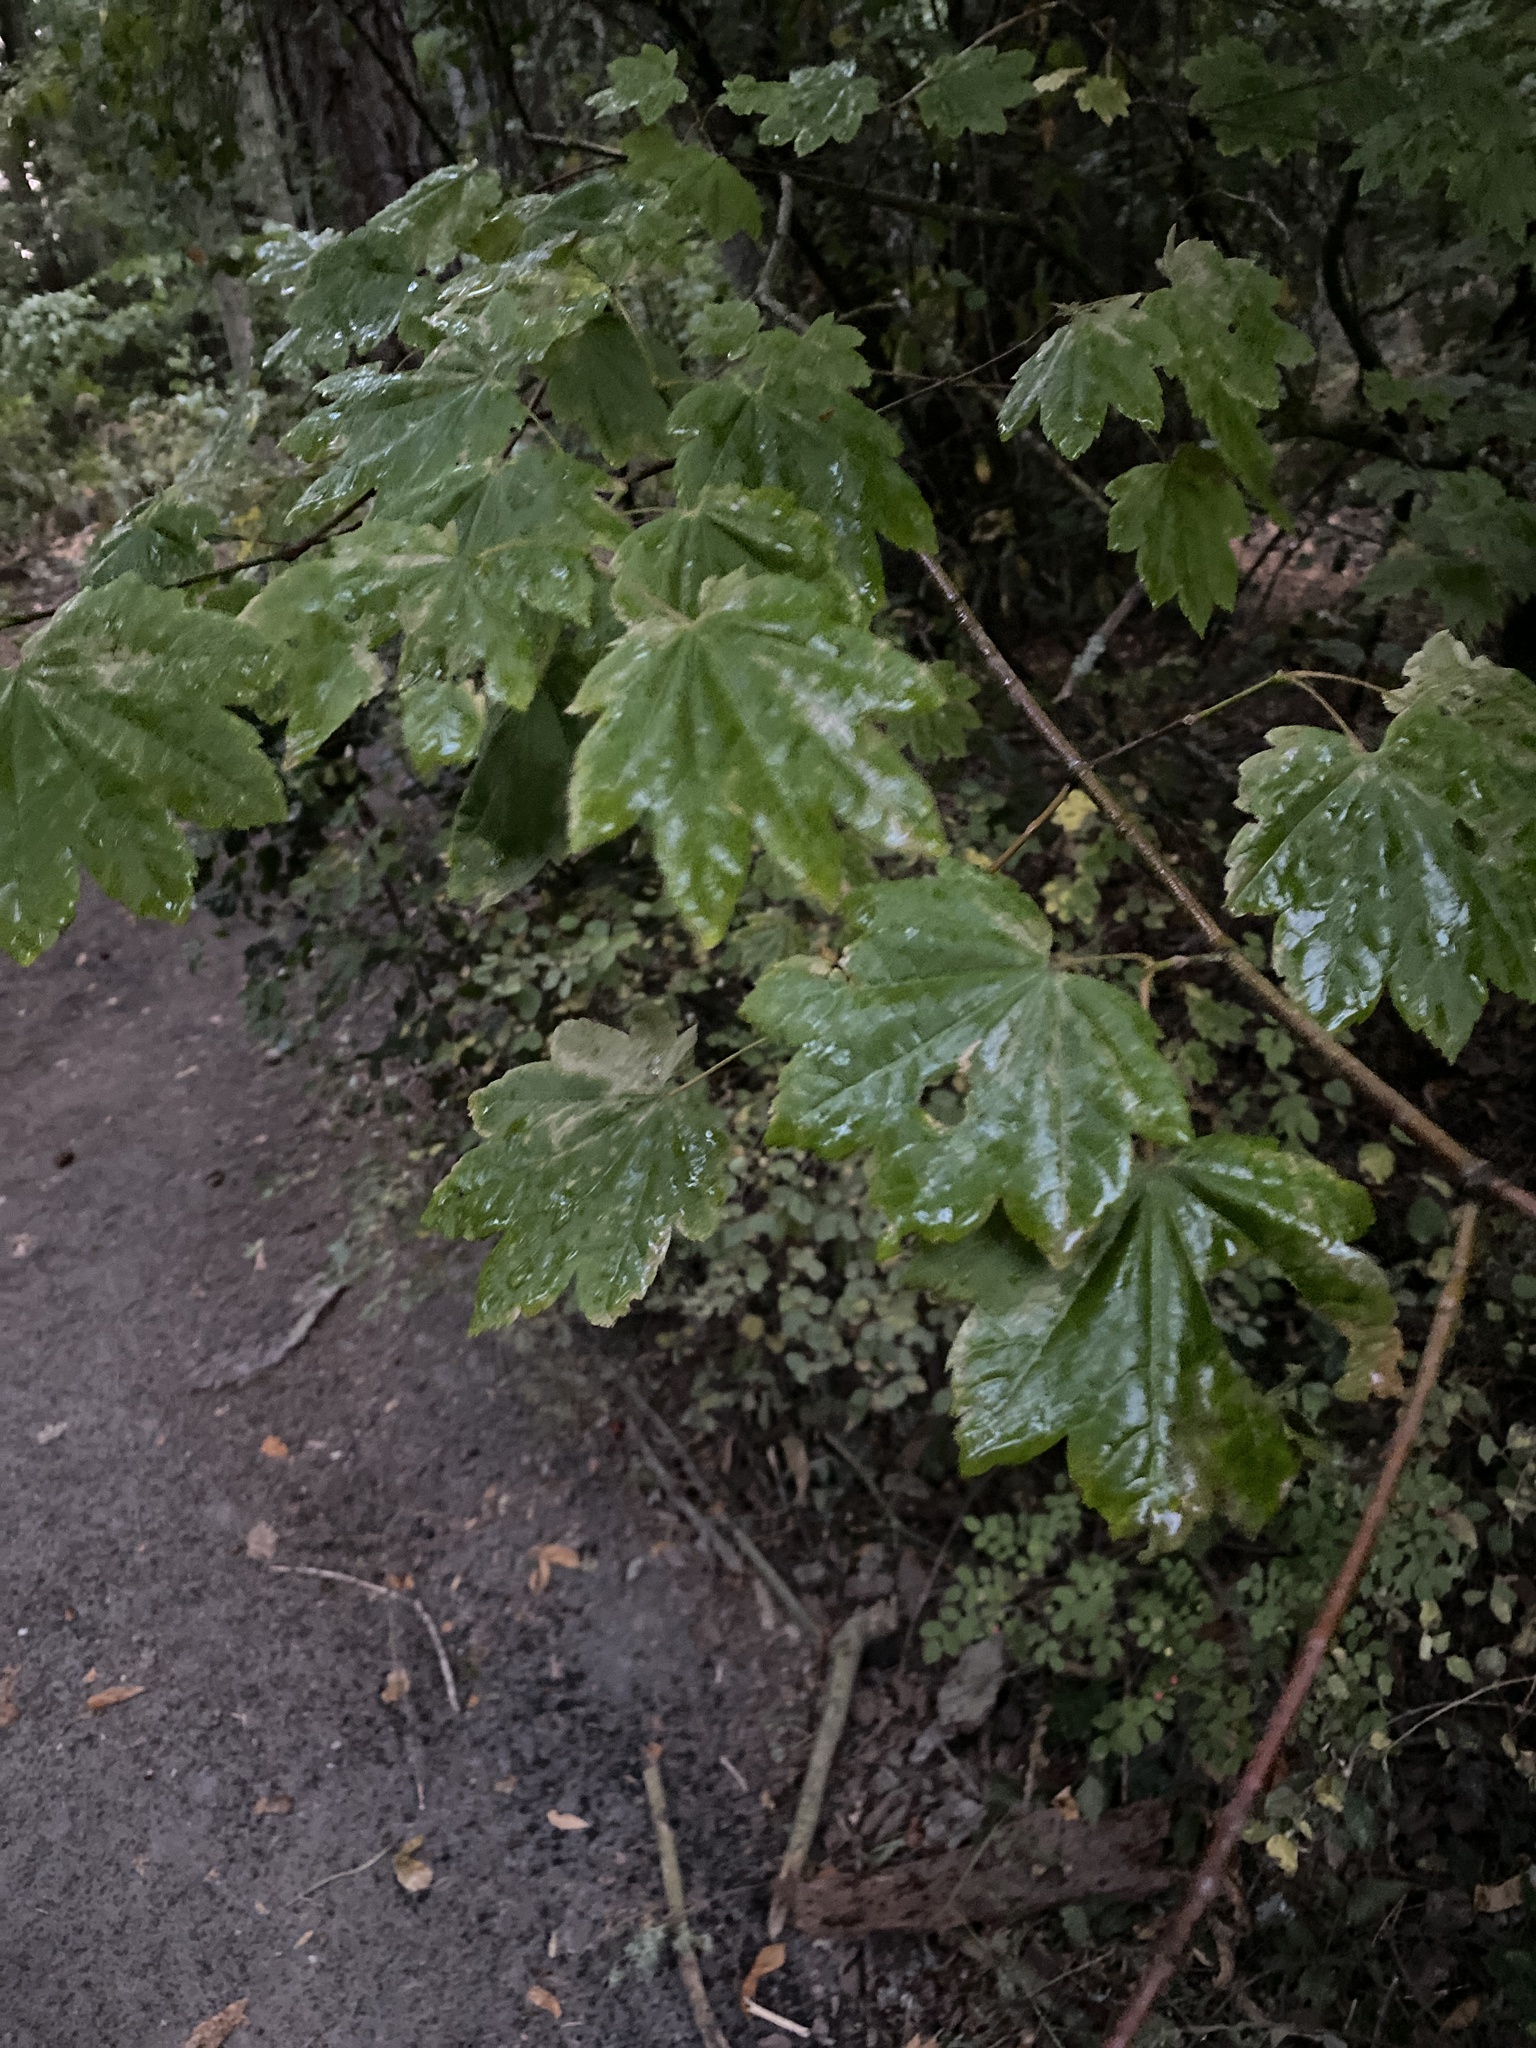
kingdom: Plantae
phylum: Tracheophyta
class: Magnoliopsida
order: Sapindales
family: Sapindaceae
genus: Acer
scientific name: Acer circinatum
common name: Vine maple
